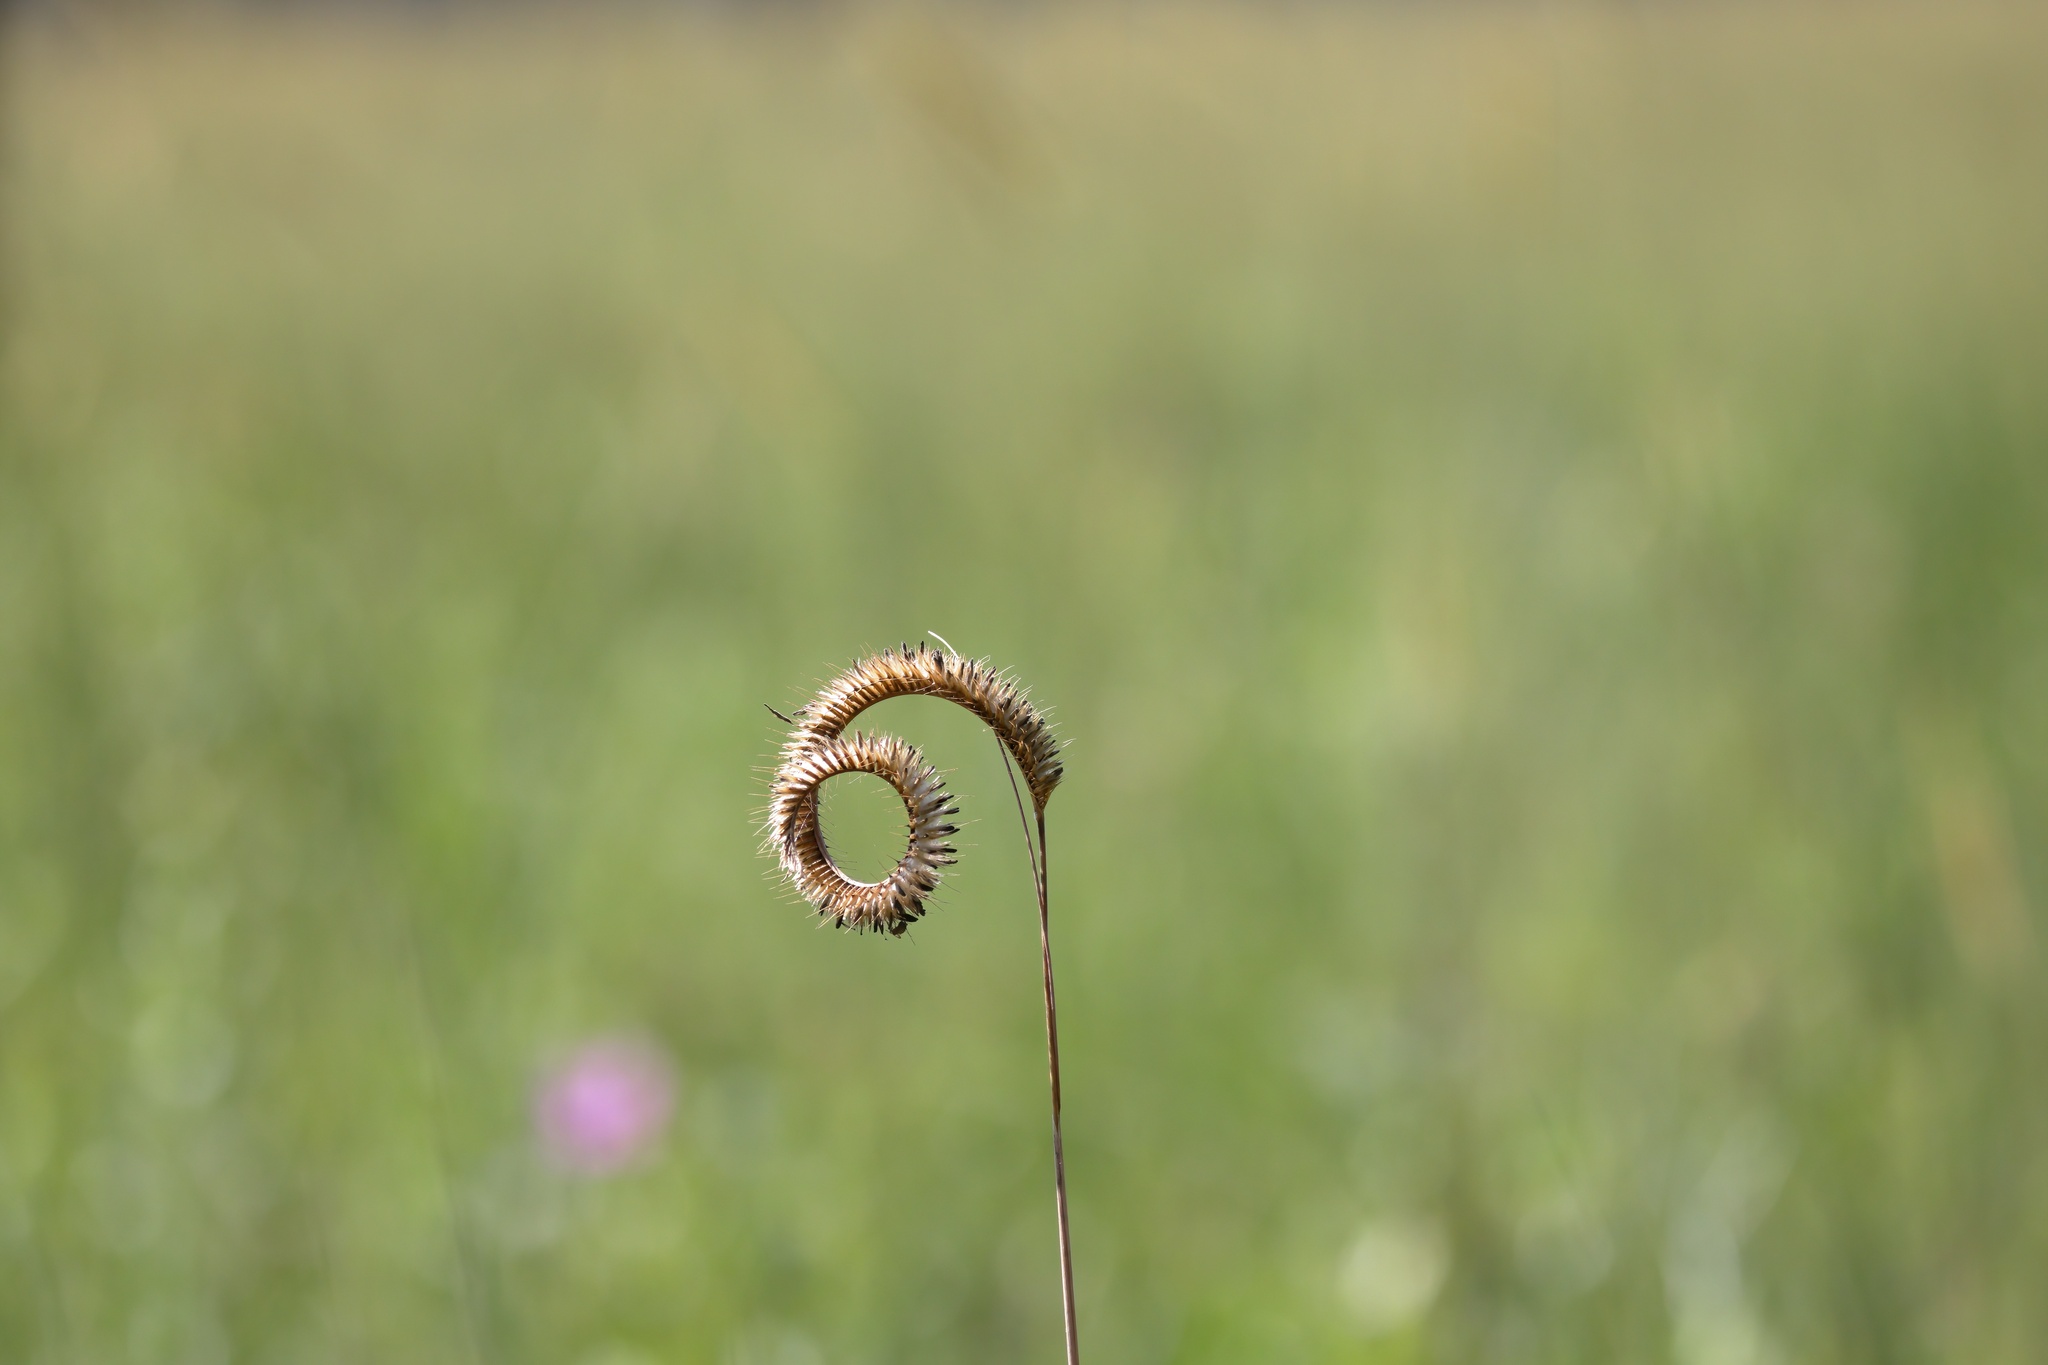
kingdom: Plantae
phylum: Tracheophyta
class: Liliopsida
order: Poales
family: Poaceae
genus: Ctenium
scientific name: Ctenium aromaticum
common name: Toothache grass
